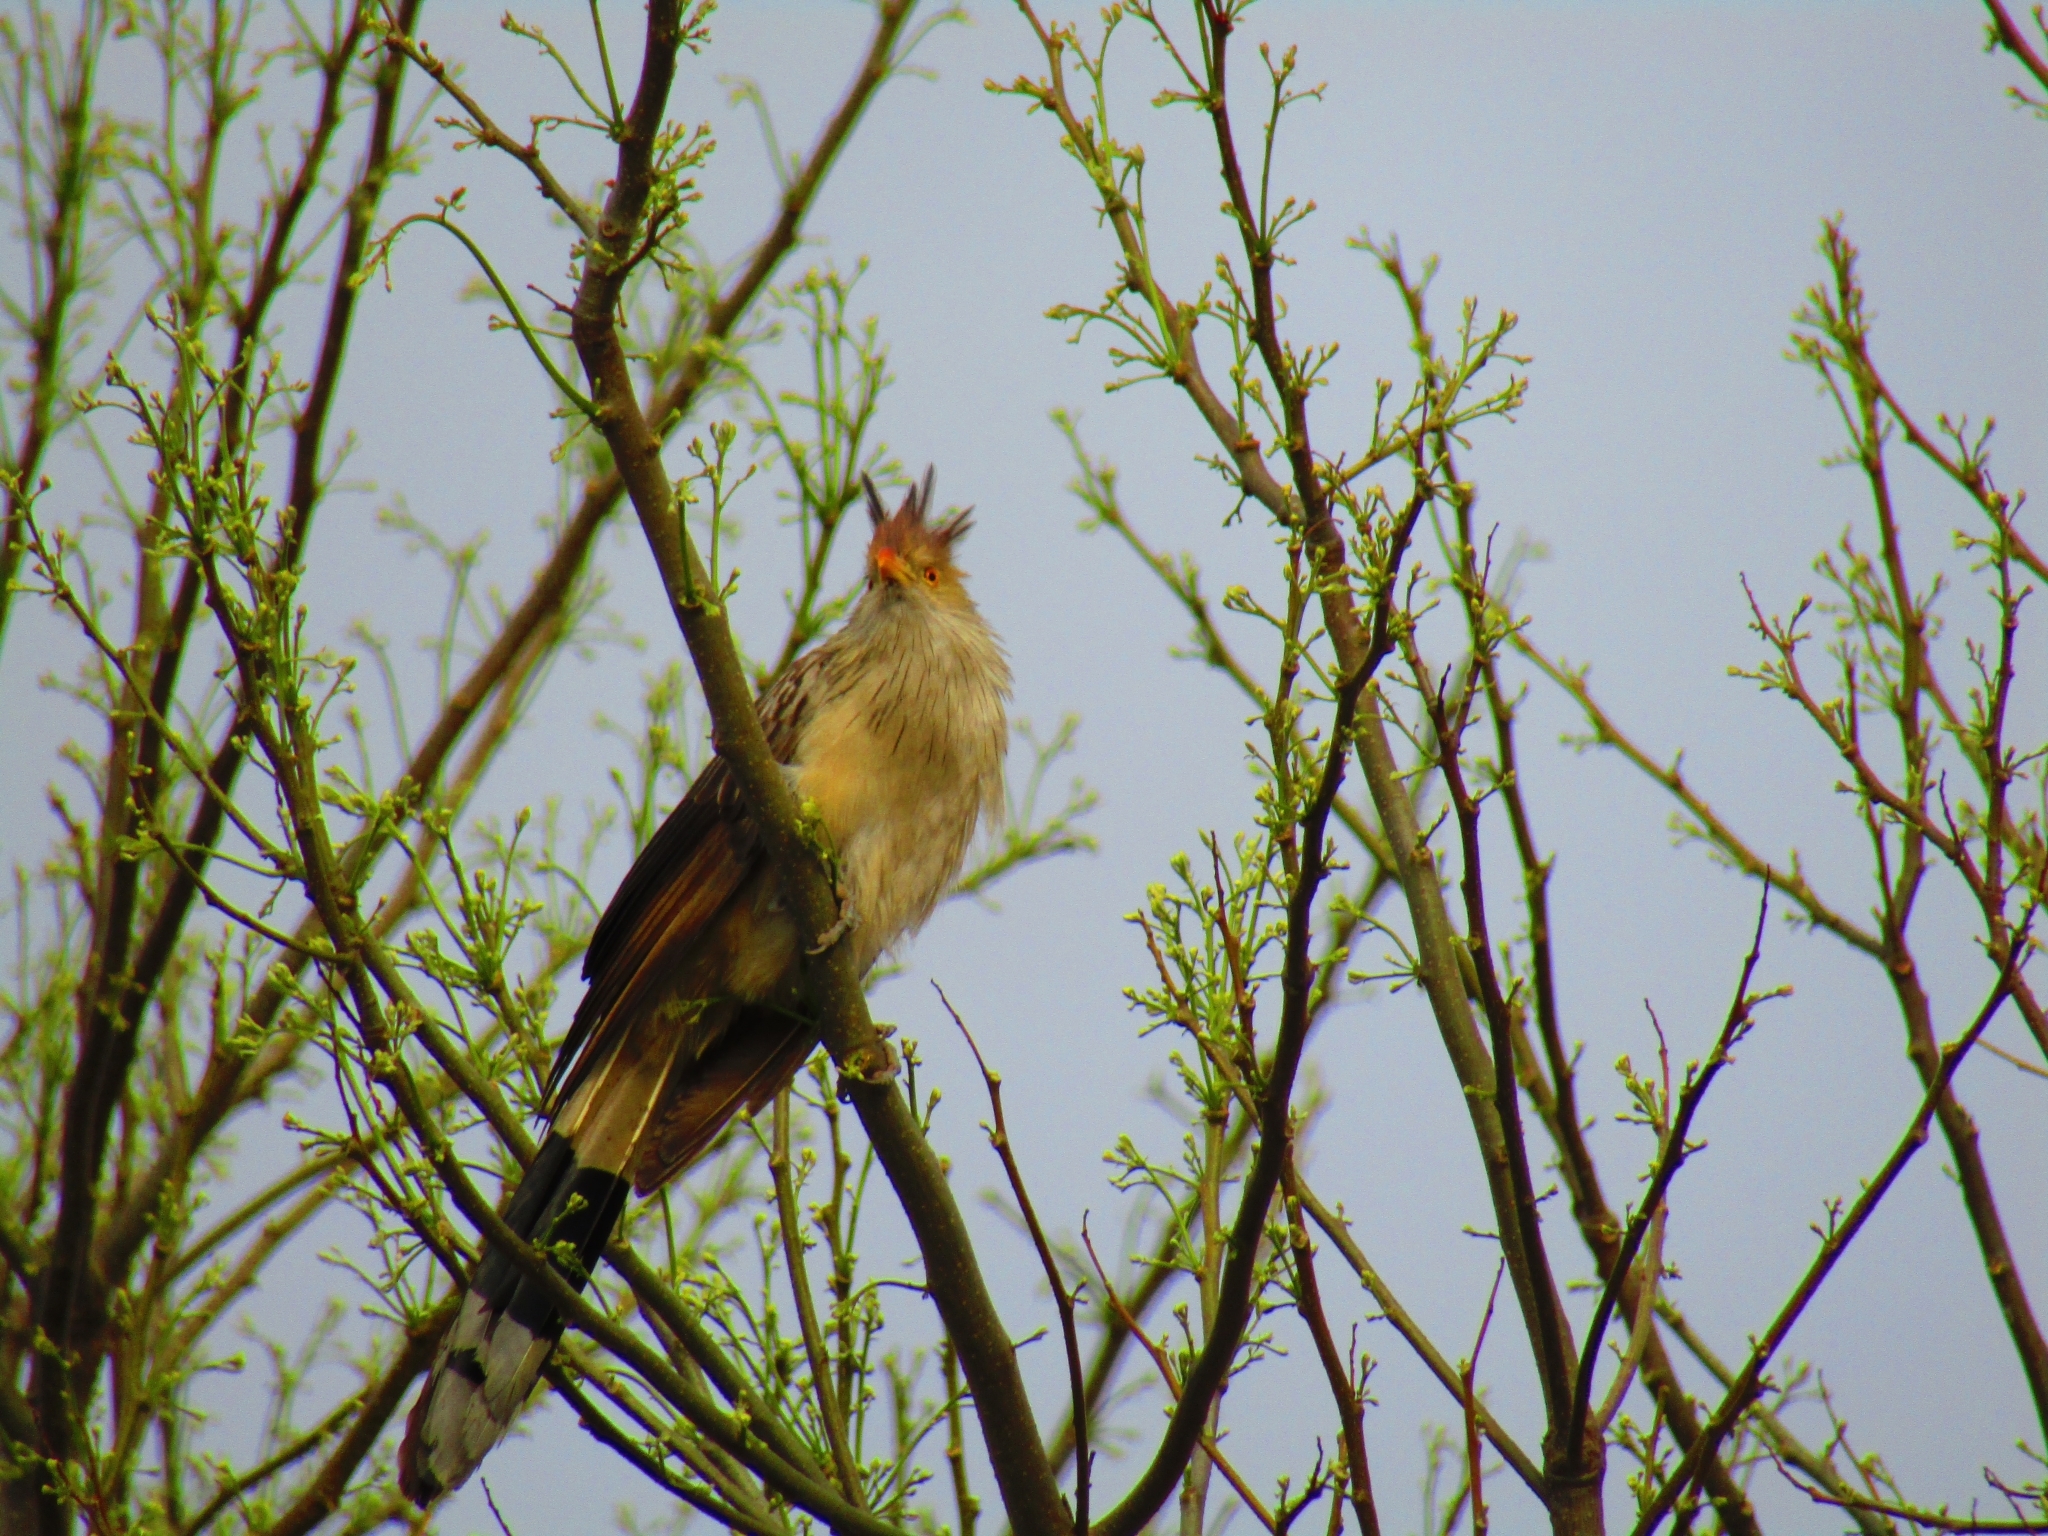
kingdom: Animalia
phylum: Chordata
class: Aves
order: Cuculiformes
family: Cuculidae
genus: Guira
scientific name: Guira guira
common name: Guira cuckoo
